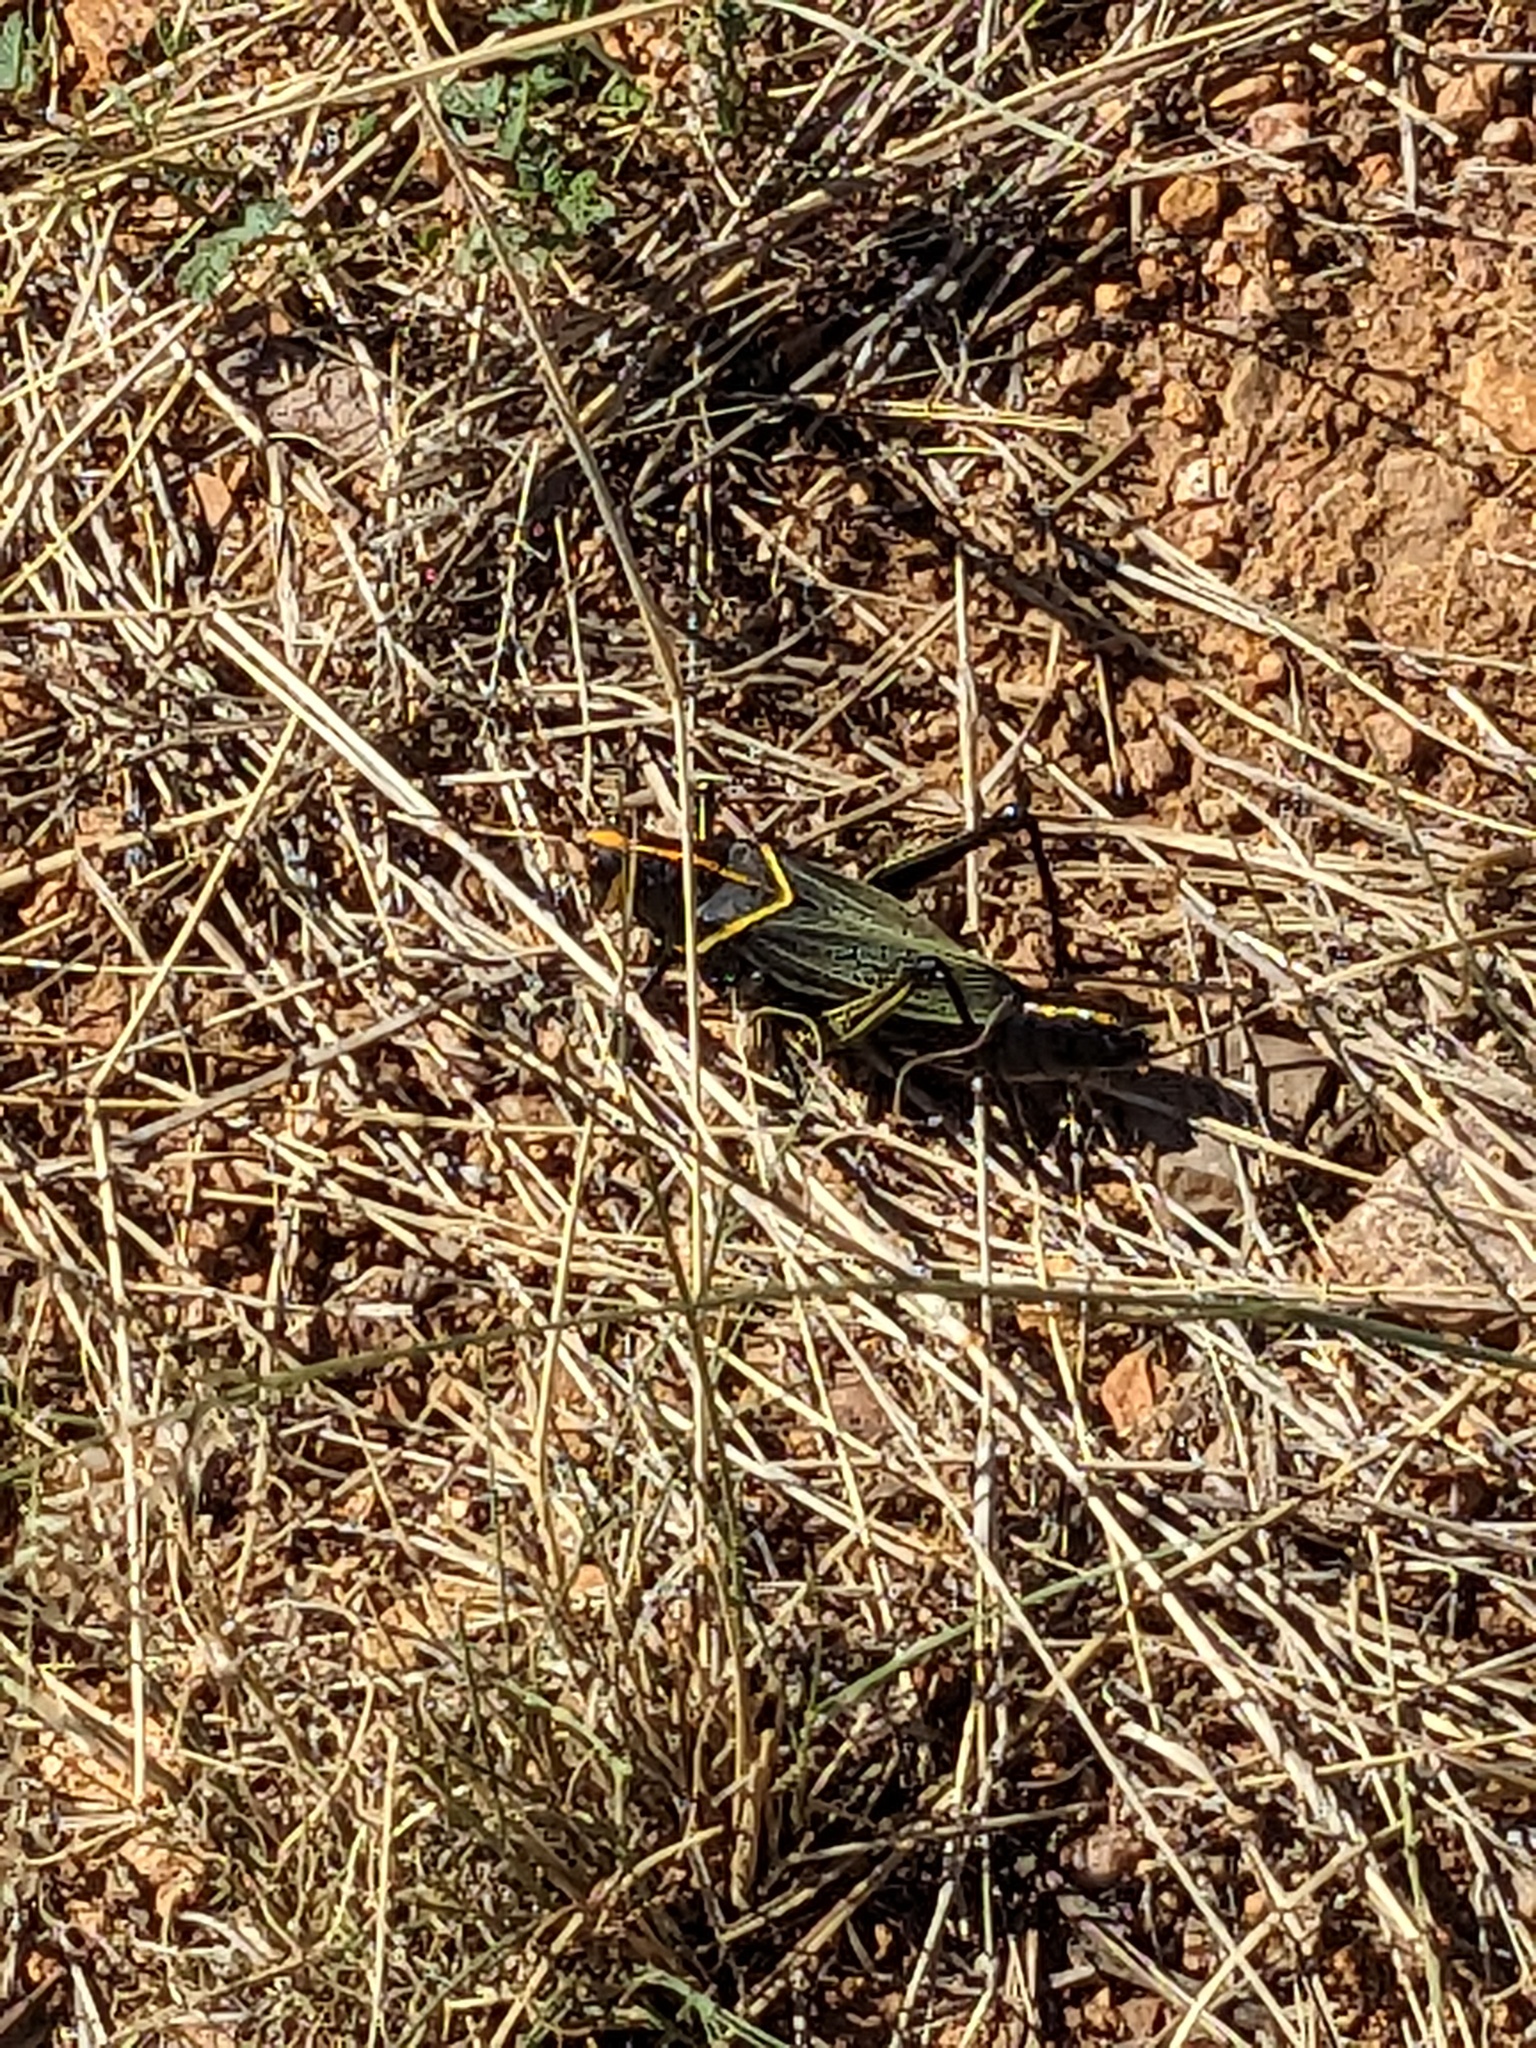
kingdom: Animalia
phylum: Arthropoda
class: Insecta
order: Orthoptera
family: Romaleidae
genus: Romalea
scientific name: Romalea
